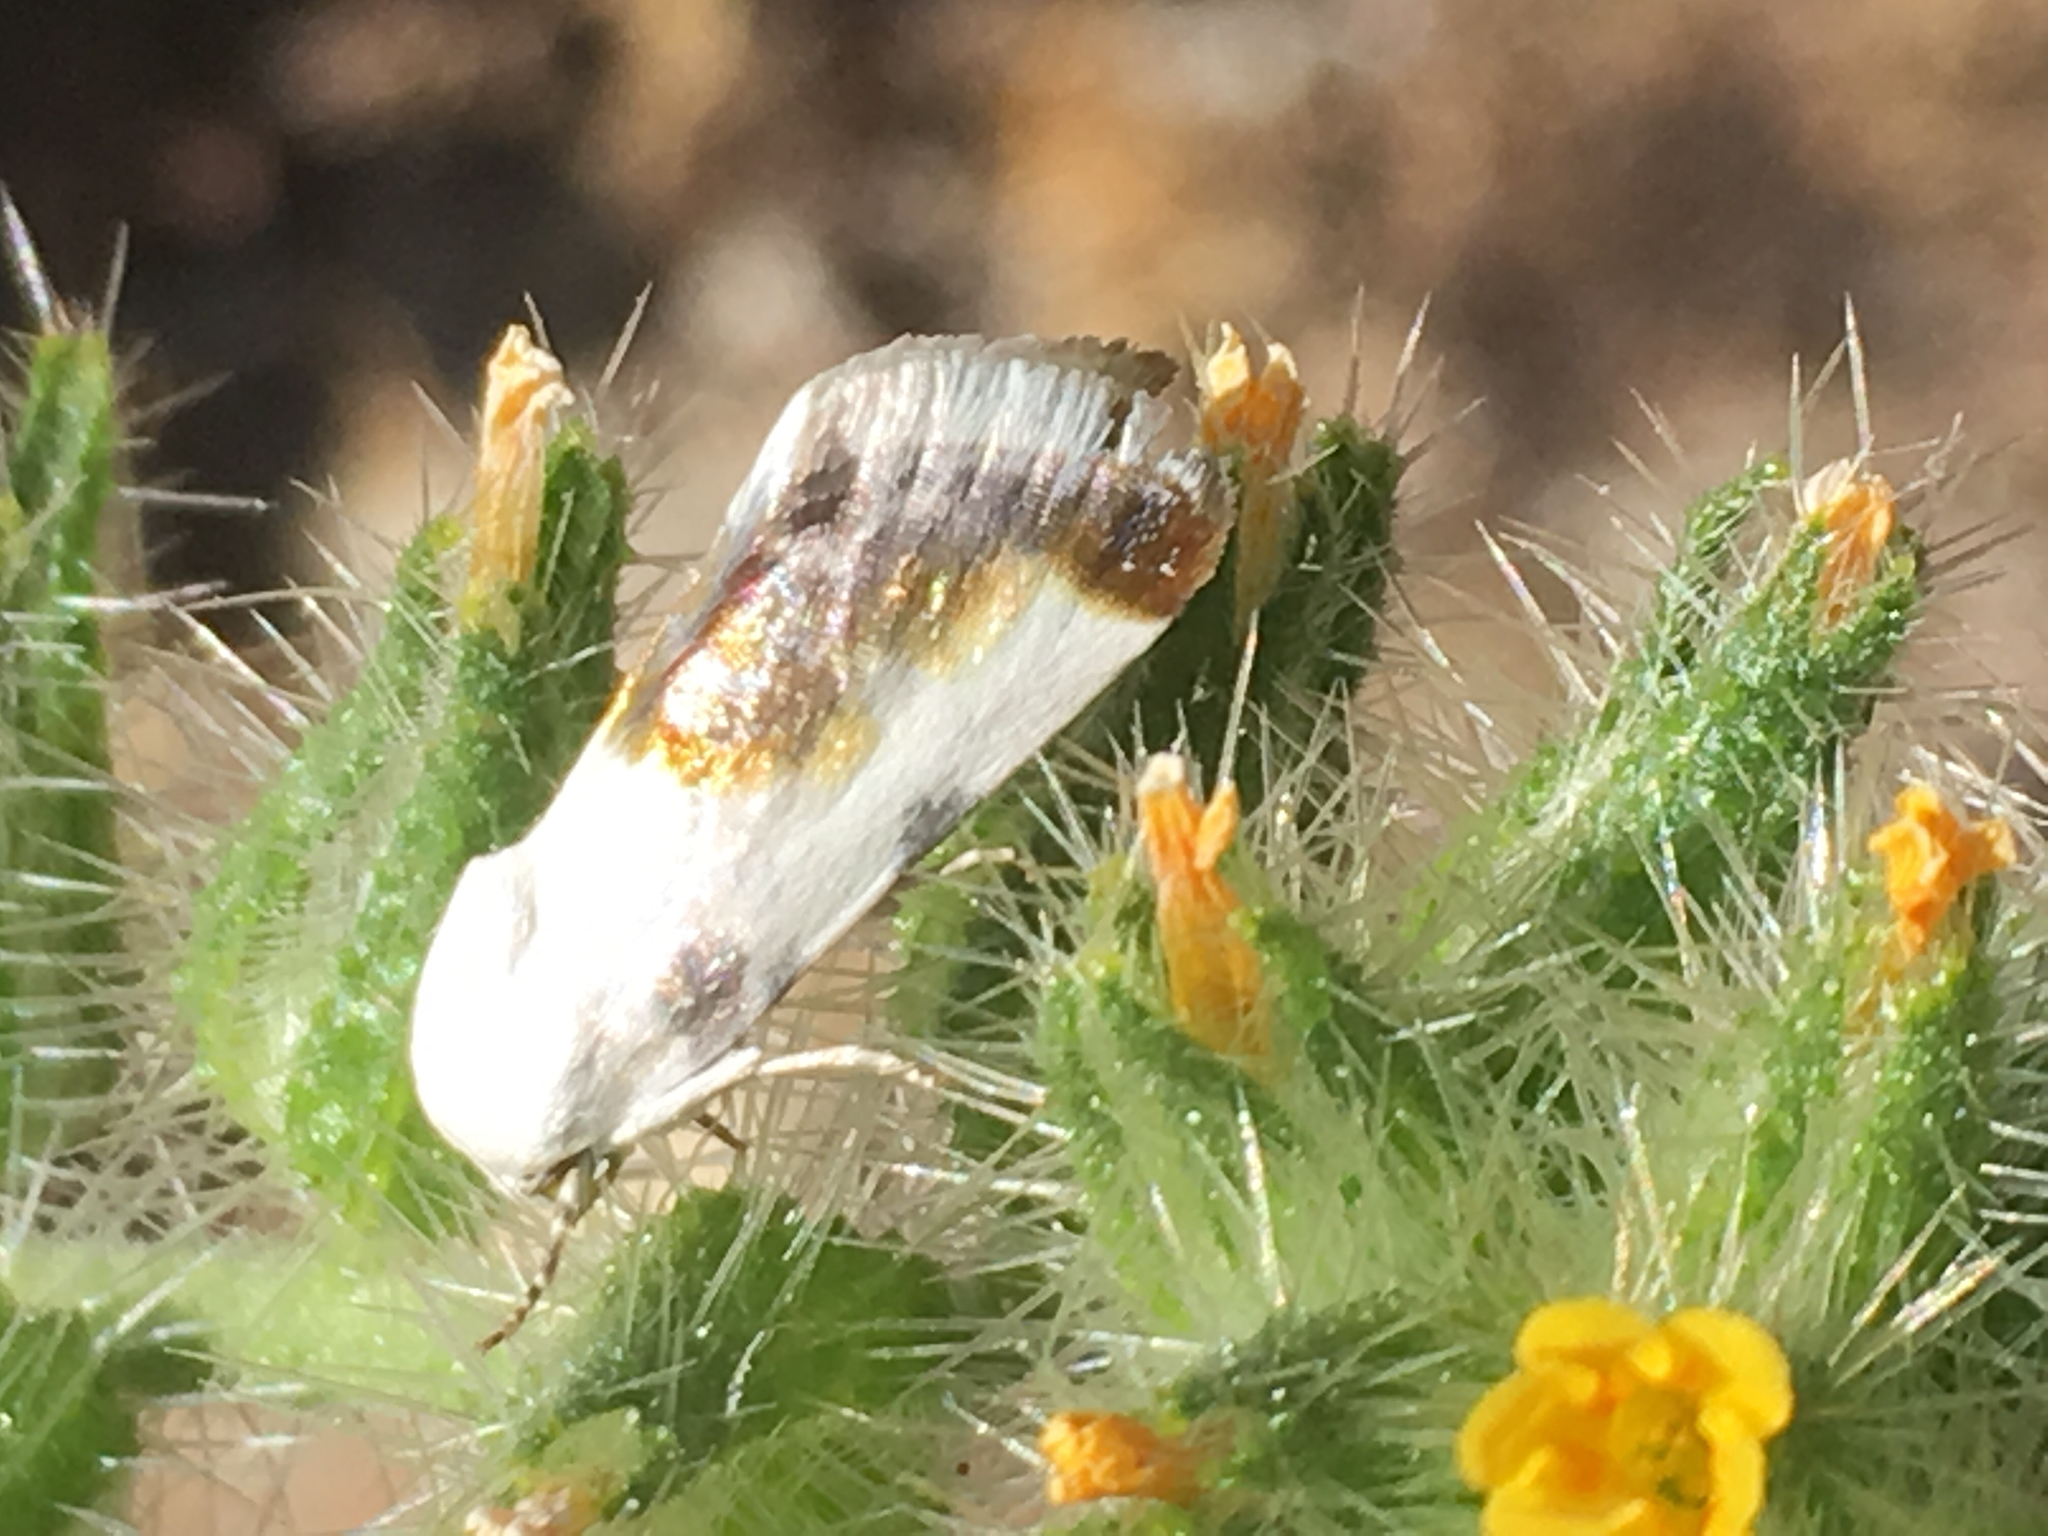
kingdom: Animalia
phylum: Arthropoda
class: Insecta
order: Lepidoptera
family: Noctuidae
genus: Acontia
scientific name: Acontia cretata
